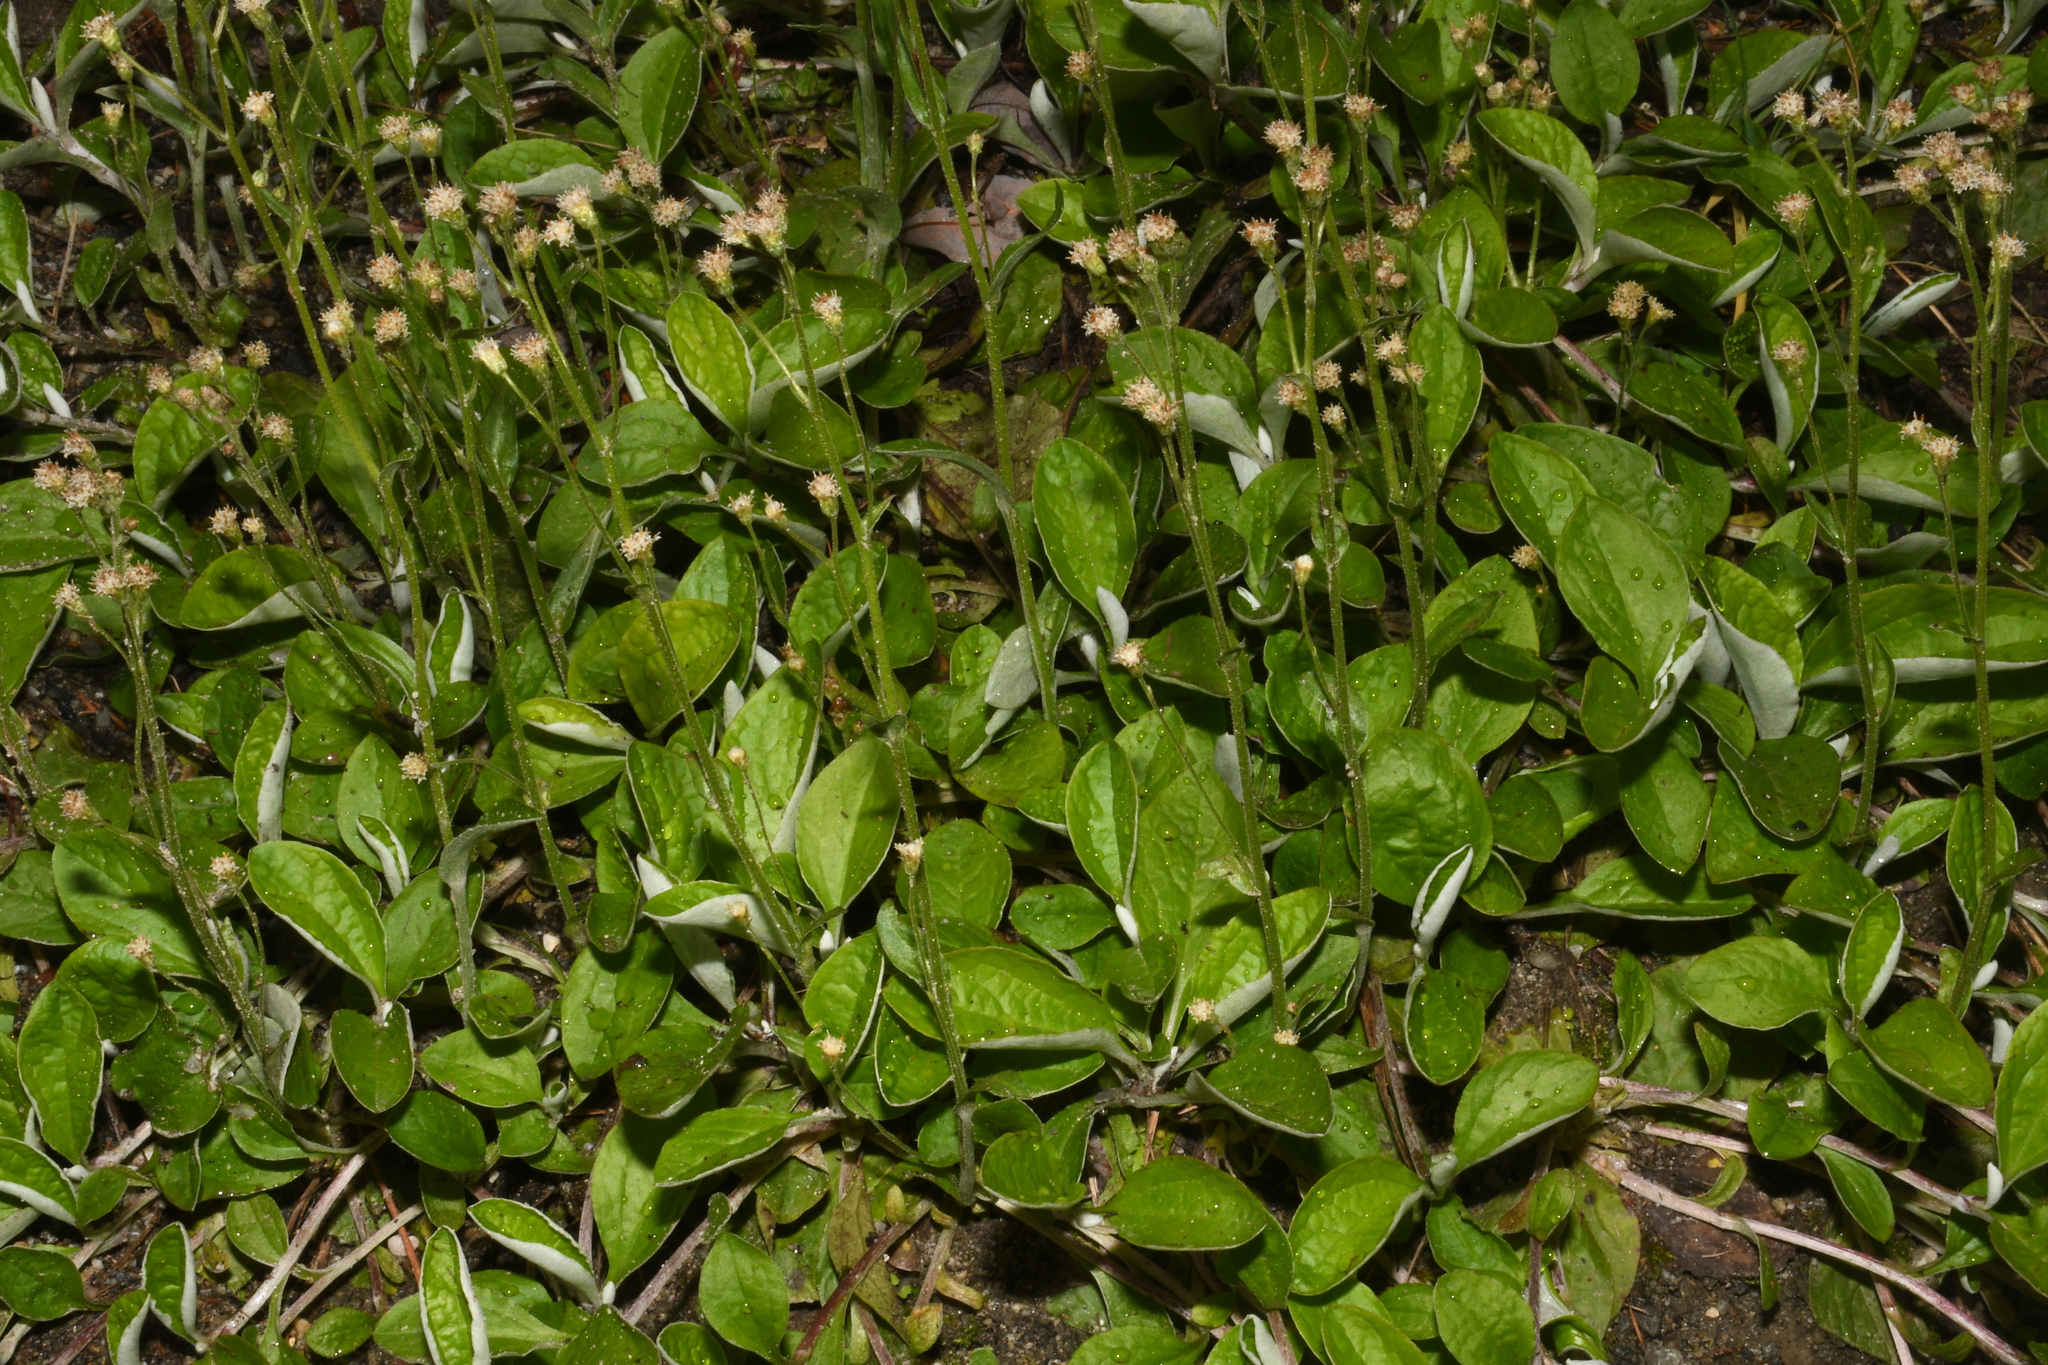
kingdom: Plantae
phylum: Tracheophyta
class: Magnoliopsida
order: Asterales
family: Asteraceae
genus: Antennaria
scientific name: Antennaria racemosa
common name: Racemose pussytoes
